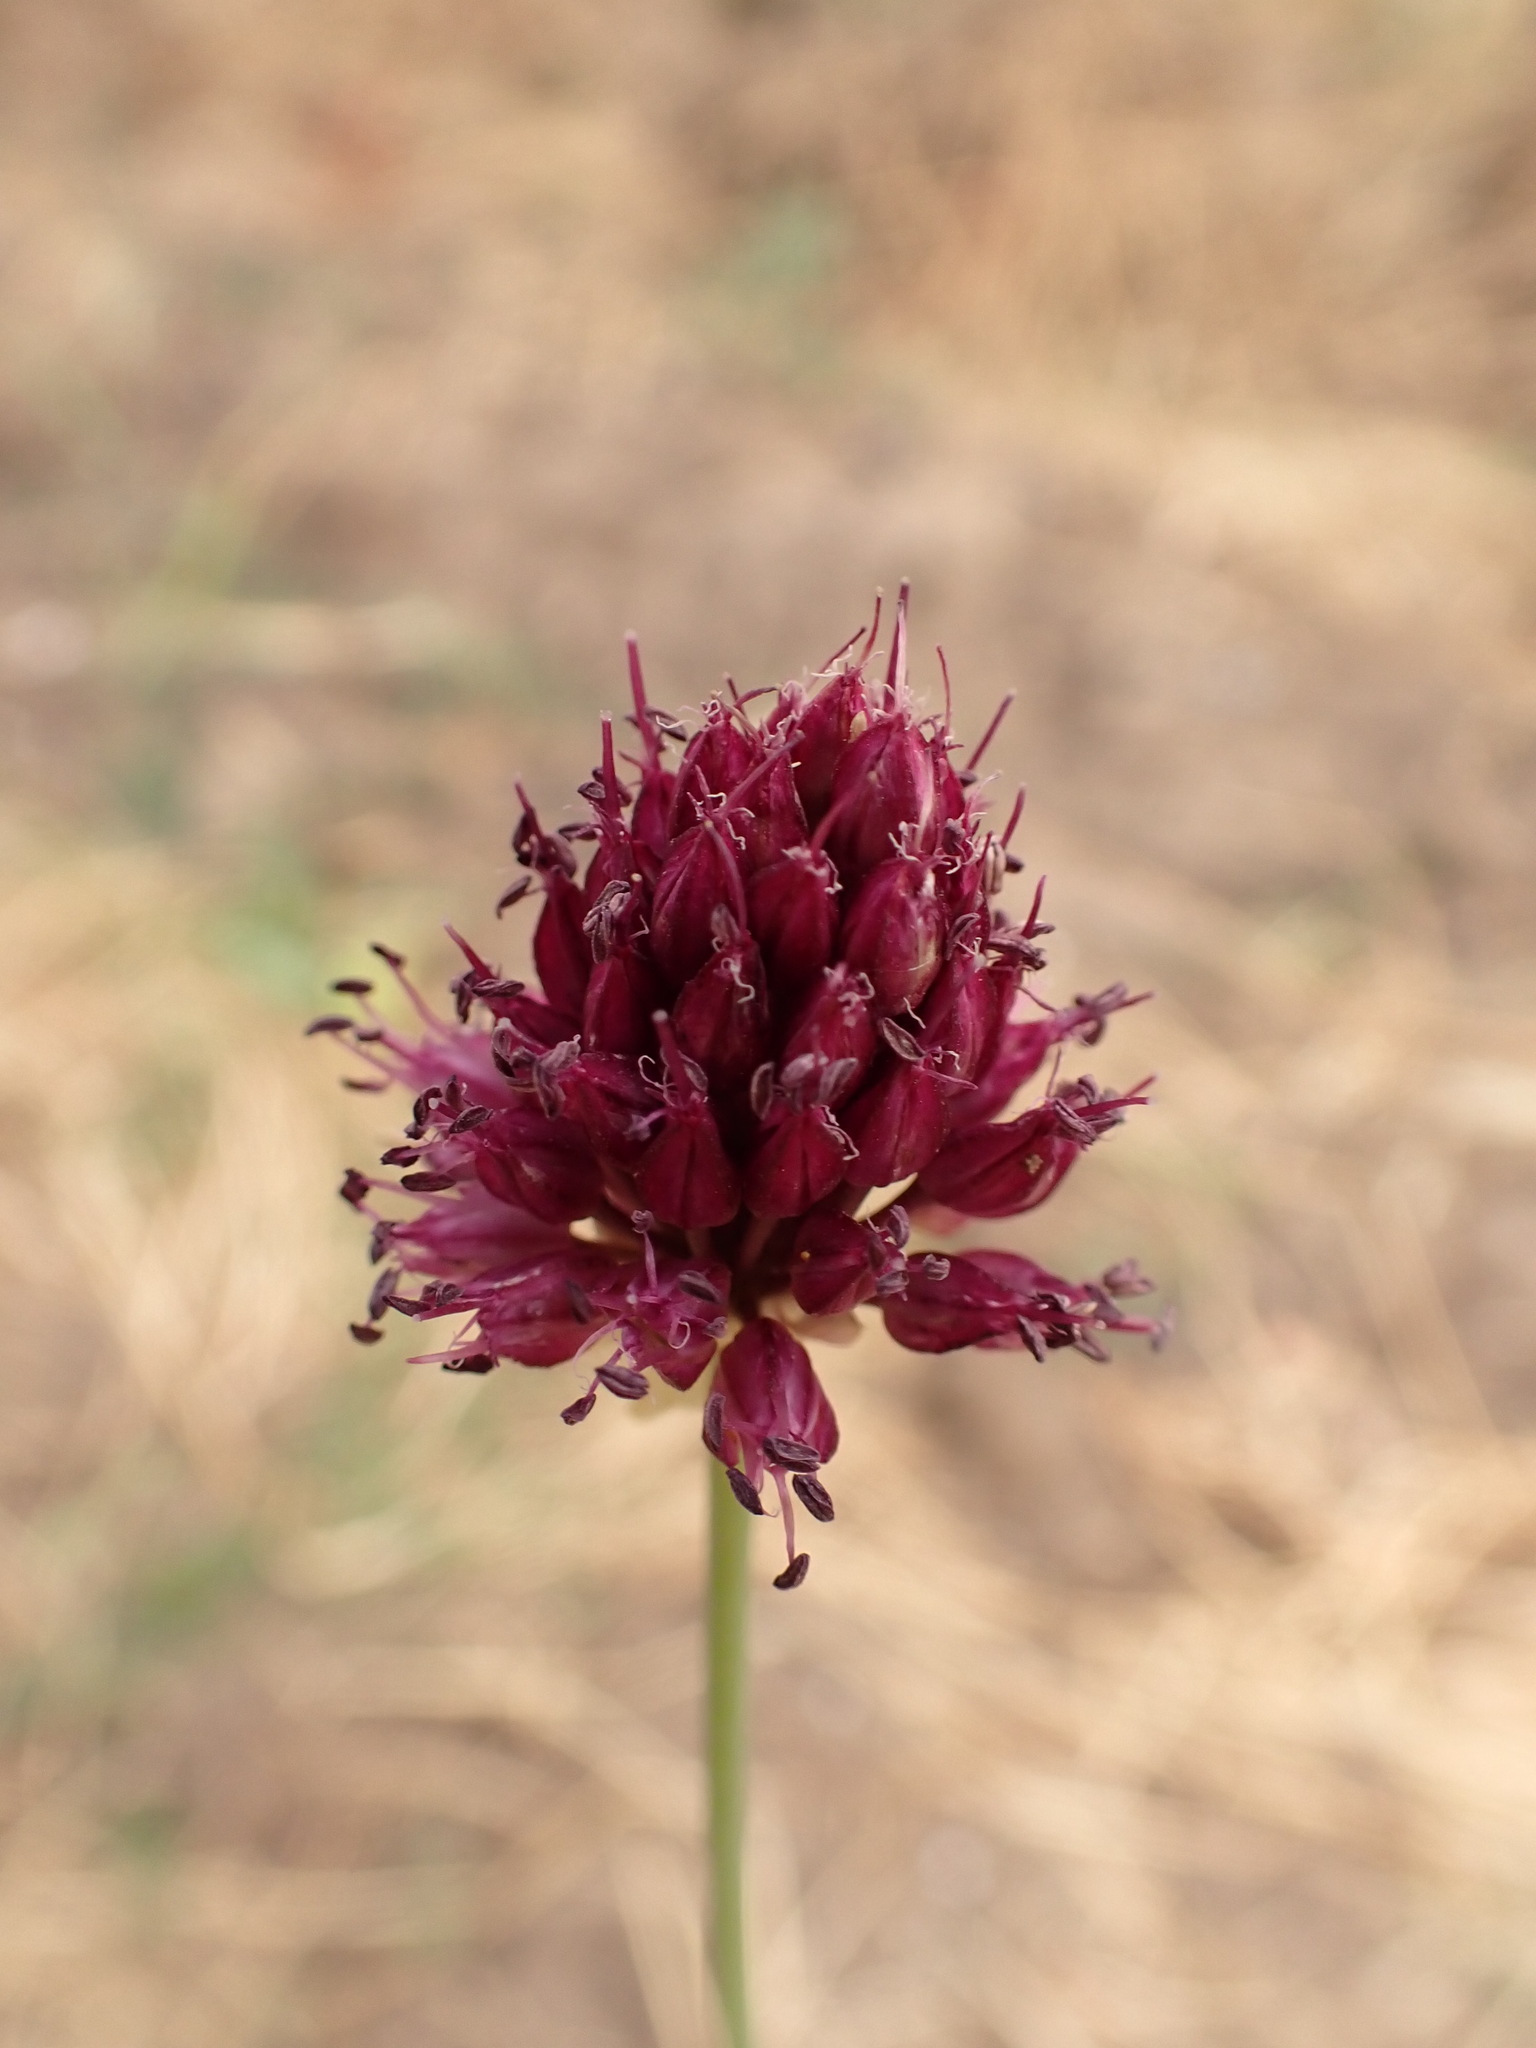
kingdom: Plantae
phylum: Tracheophyta
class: Liliopsida
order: Asparagales
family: Amaryllidaceae
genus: Allium
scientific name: Allium sphaerocephalon
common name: Round-headed leek
